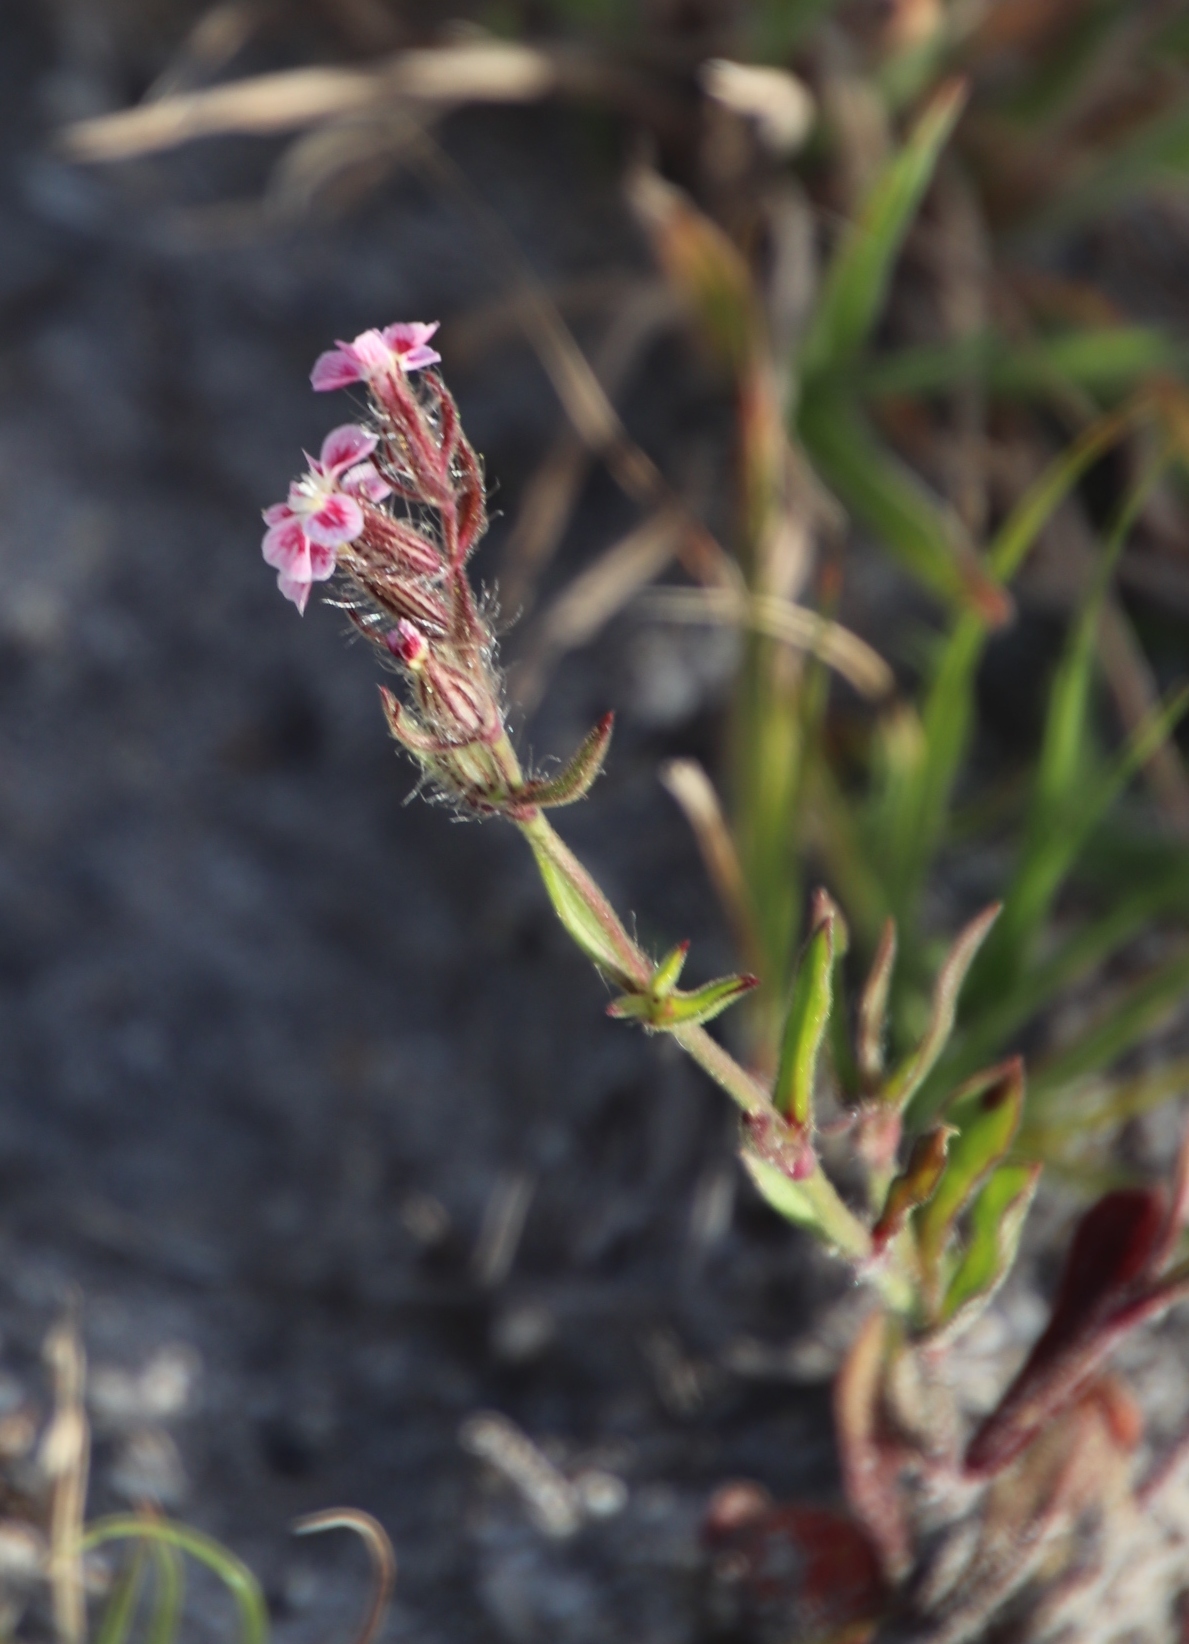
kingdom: Plantae
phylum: Tracheophyta
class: Magnoliopsida
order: Caryophyllales
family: Caryophyllaceae
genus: Silene
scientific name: Silene gallica
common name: Small-flowered catchfly
